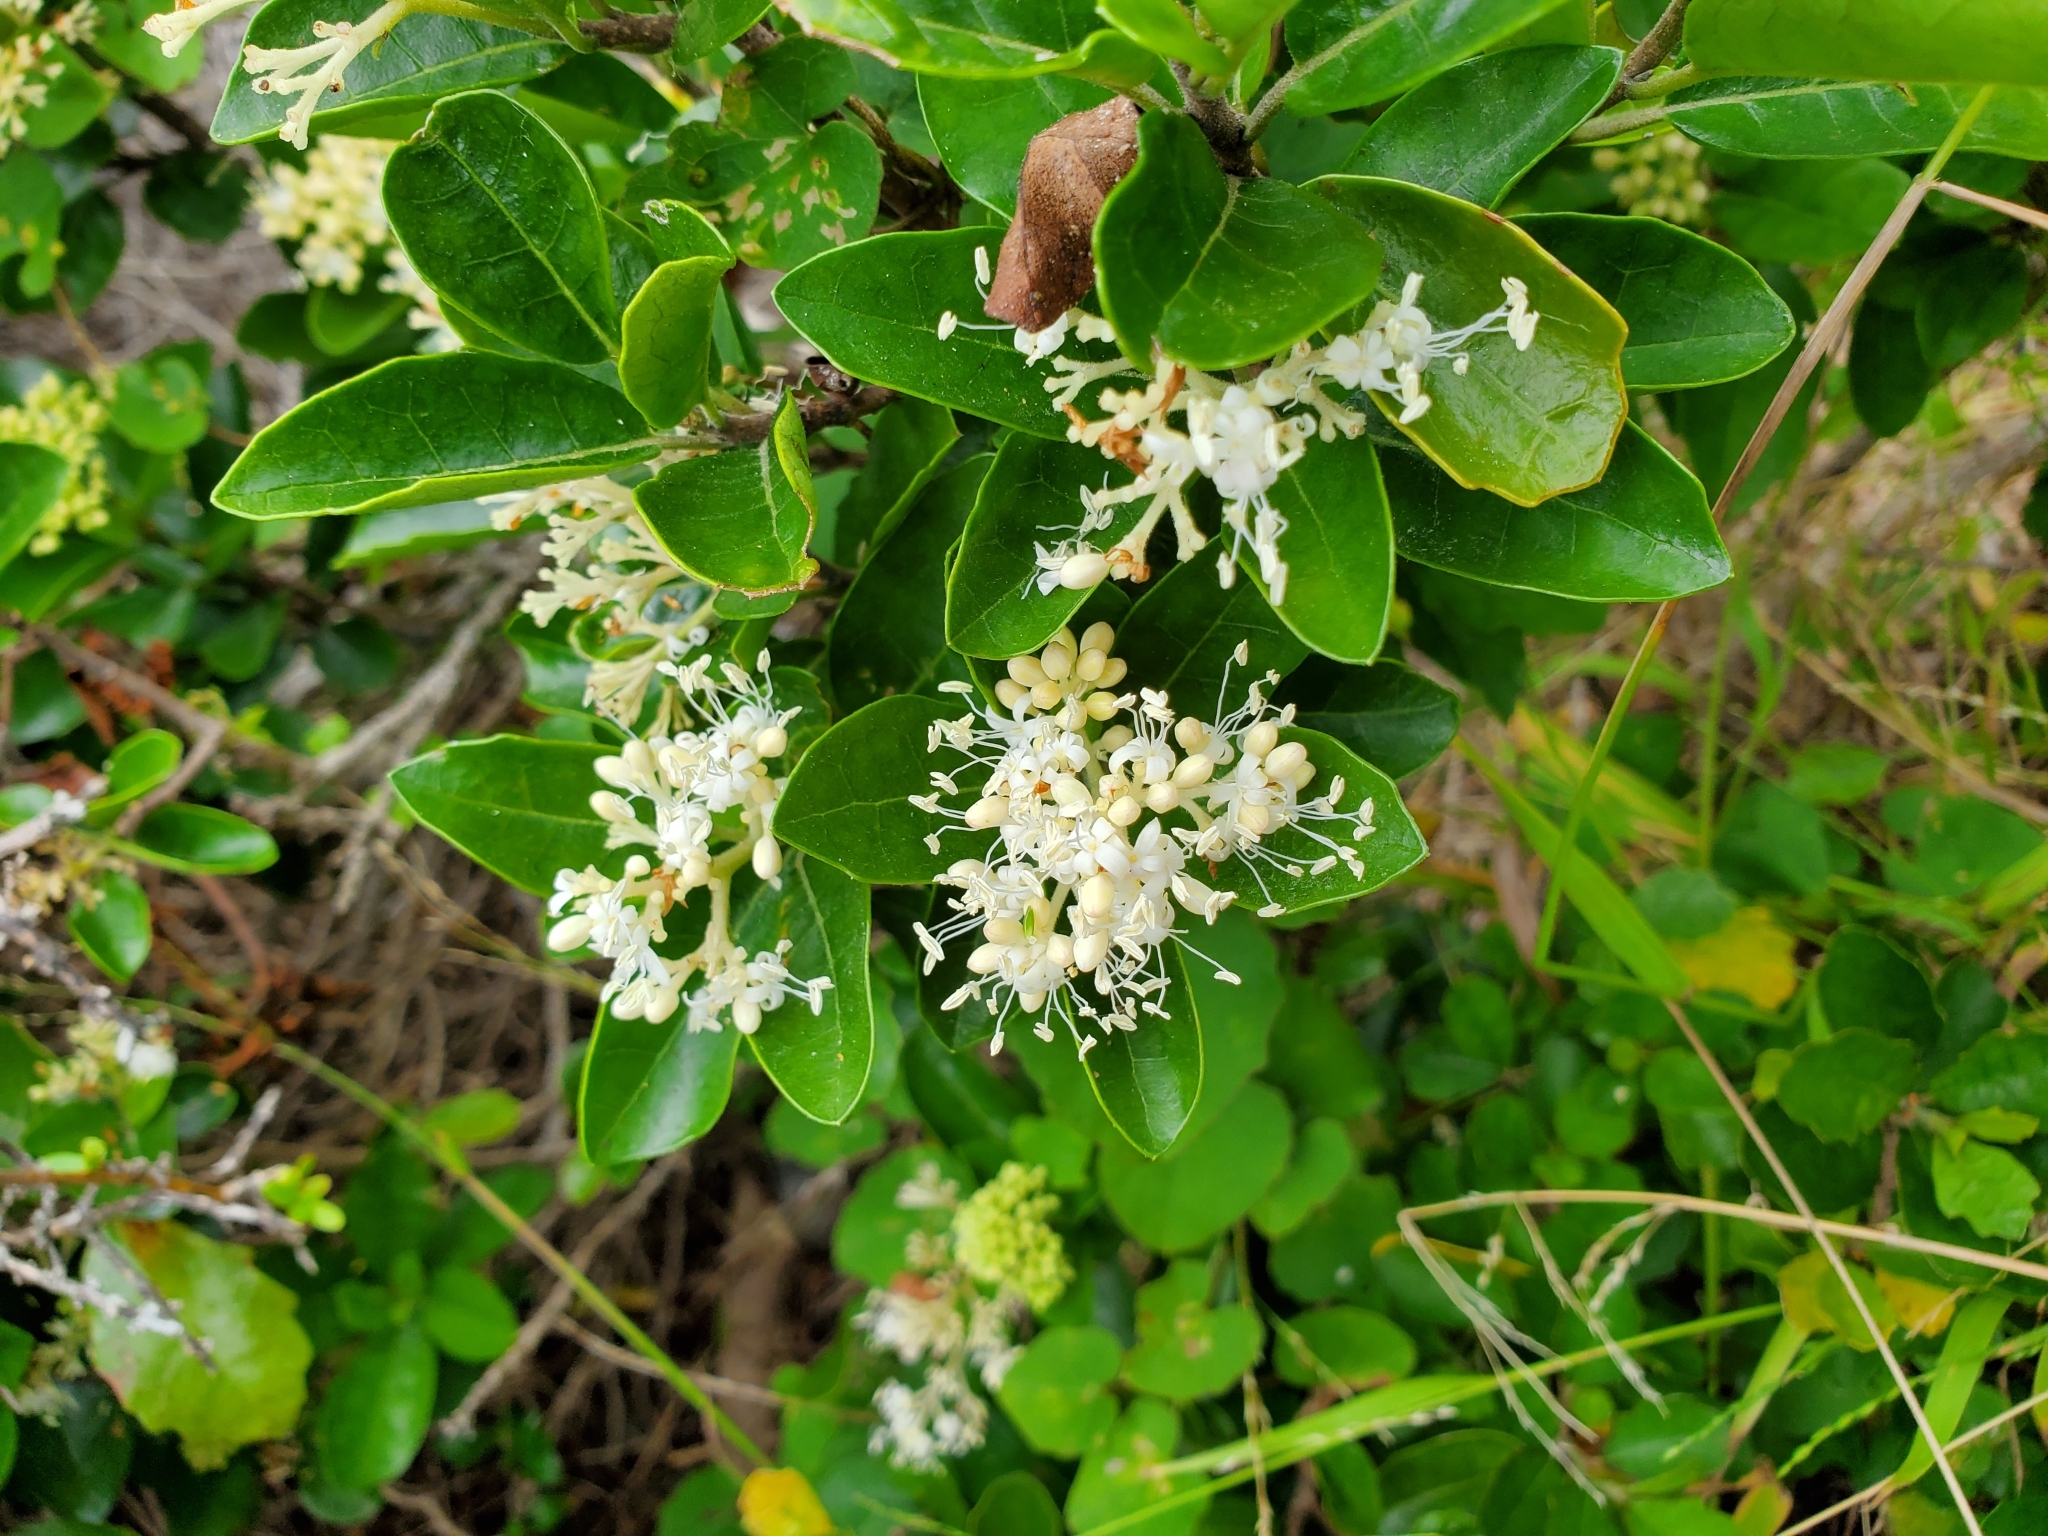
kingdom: Plantae
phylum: Tracheophyta
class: Magnoliopsida
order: Apiales
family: Pennantiaceae
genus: Pennantia
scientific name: Pennantia corymbosa
